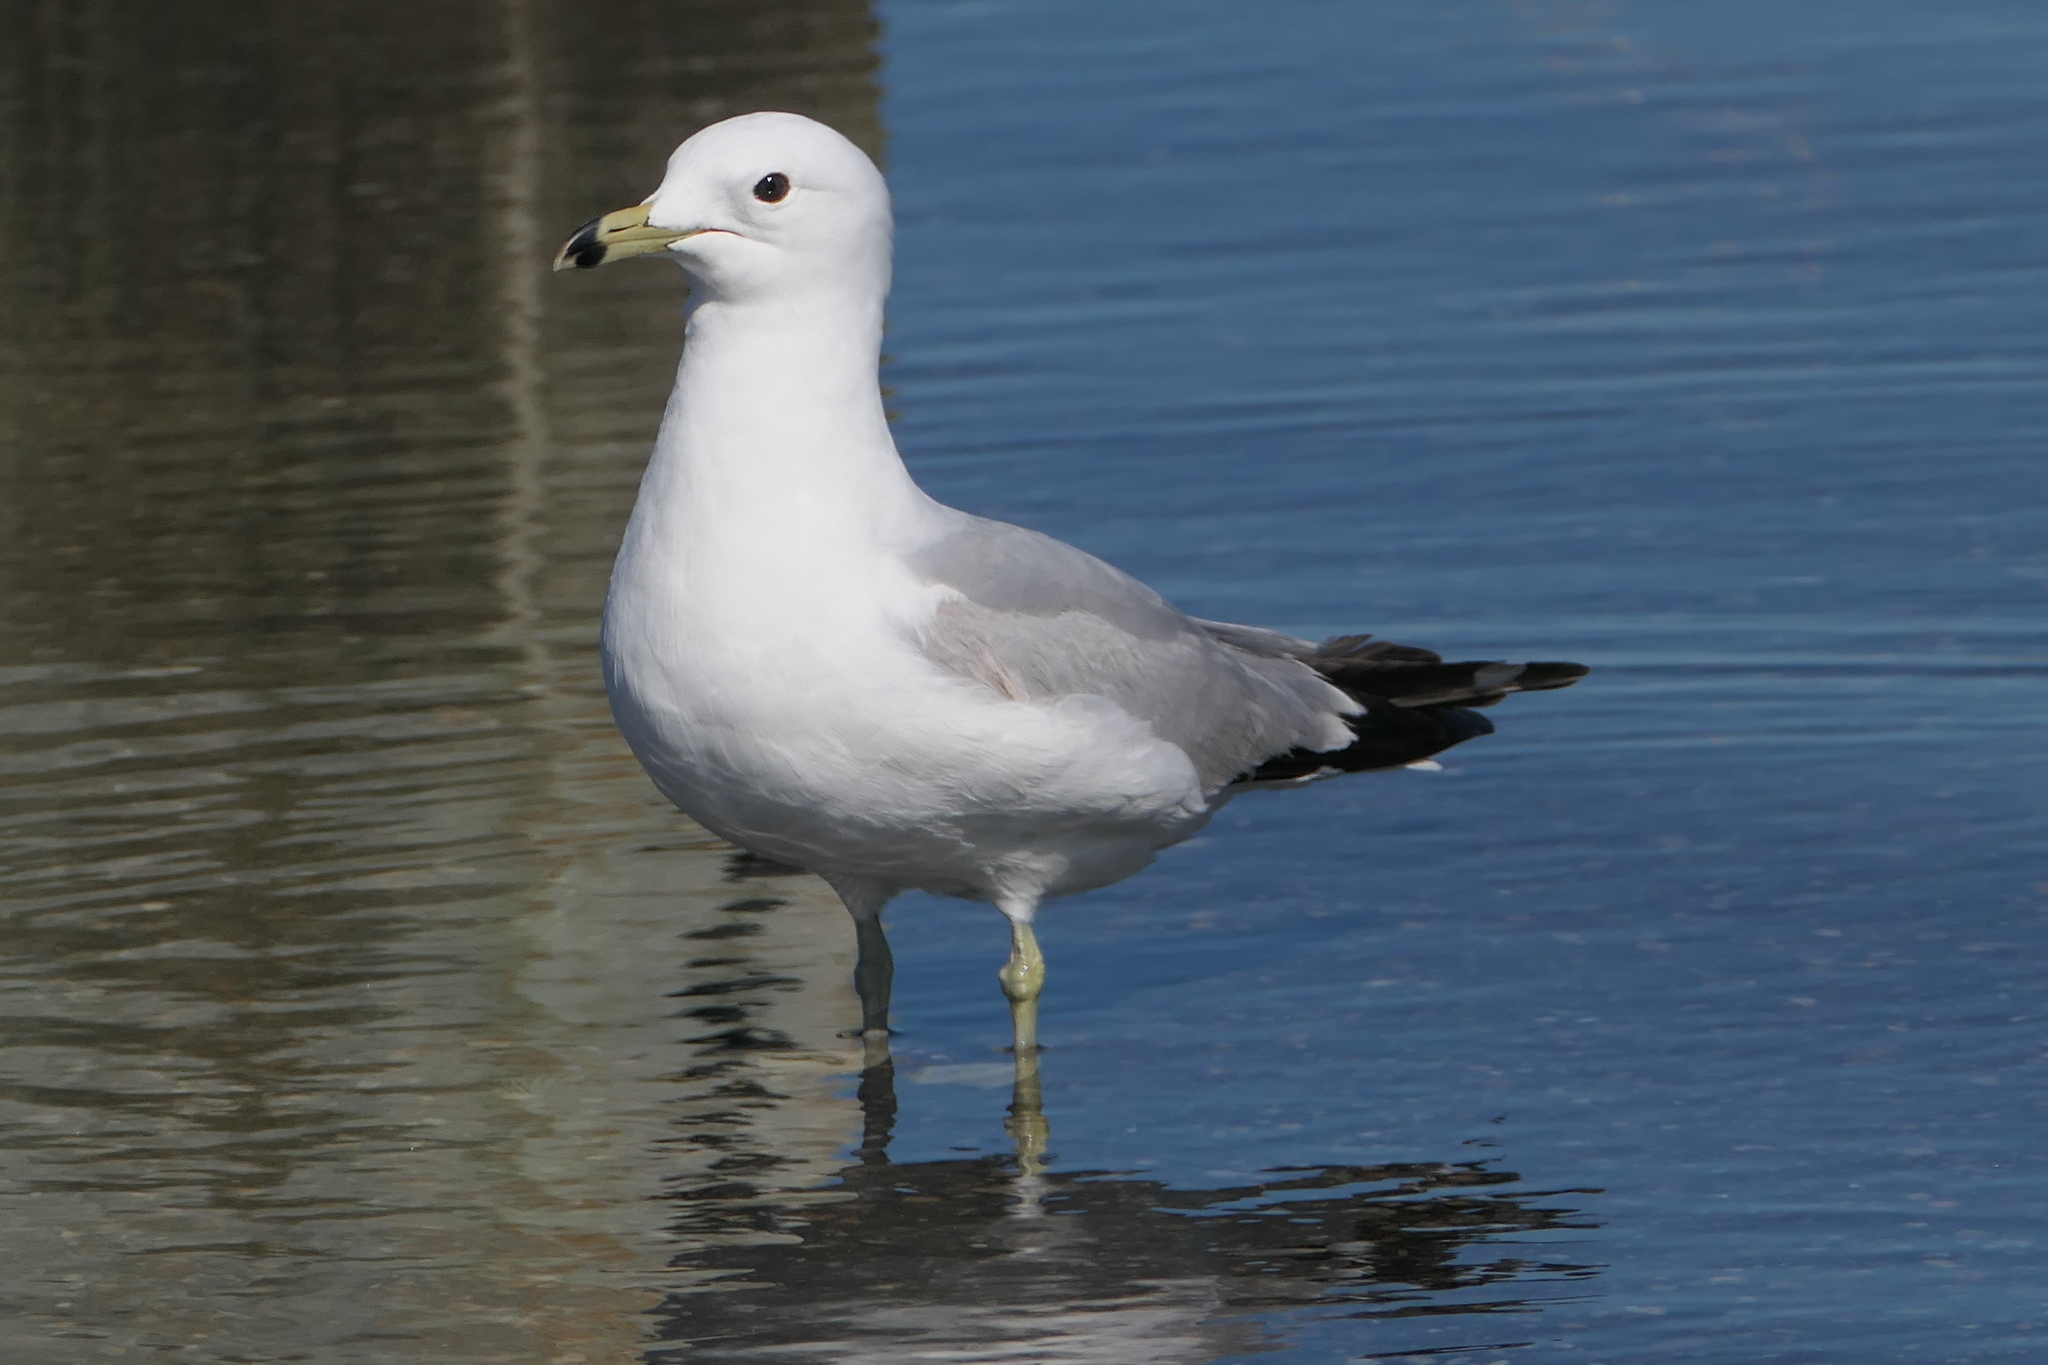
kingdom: Animalia
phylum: Chordata
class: Aves
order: Charadriiformes
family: Laridae
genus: Larus
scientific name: Larus delawarensis
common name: Ring-billed gull
